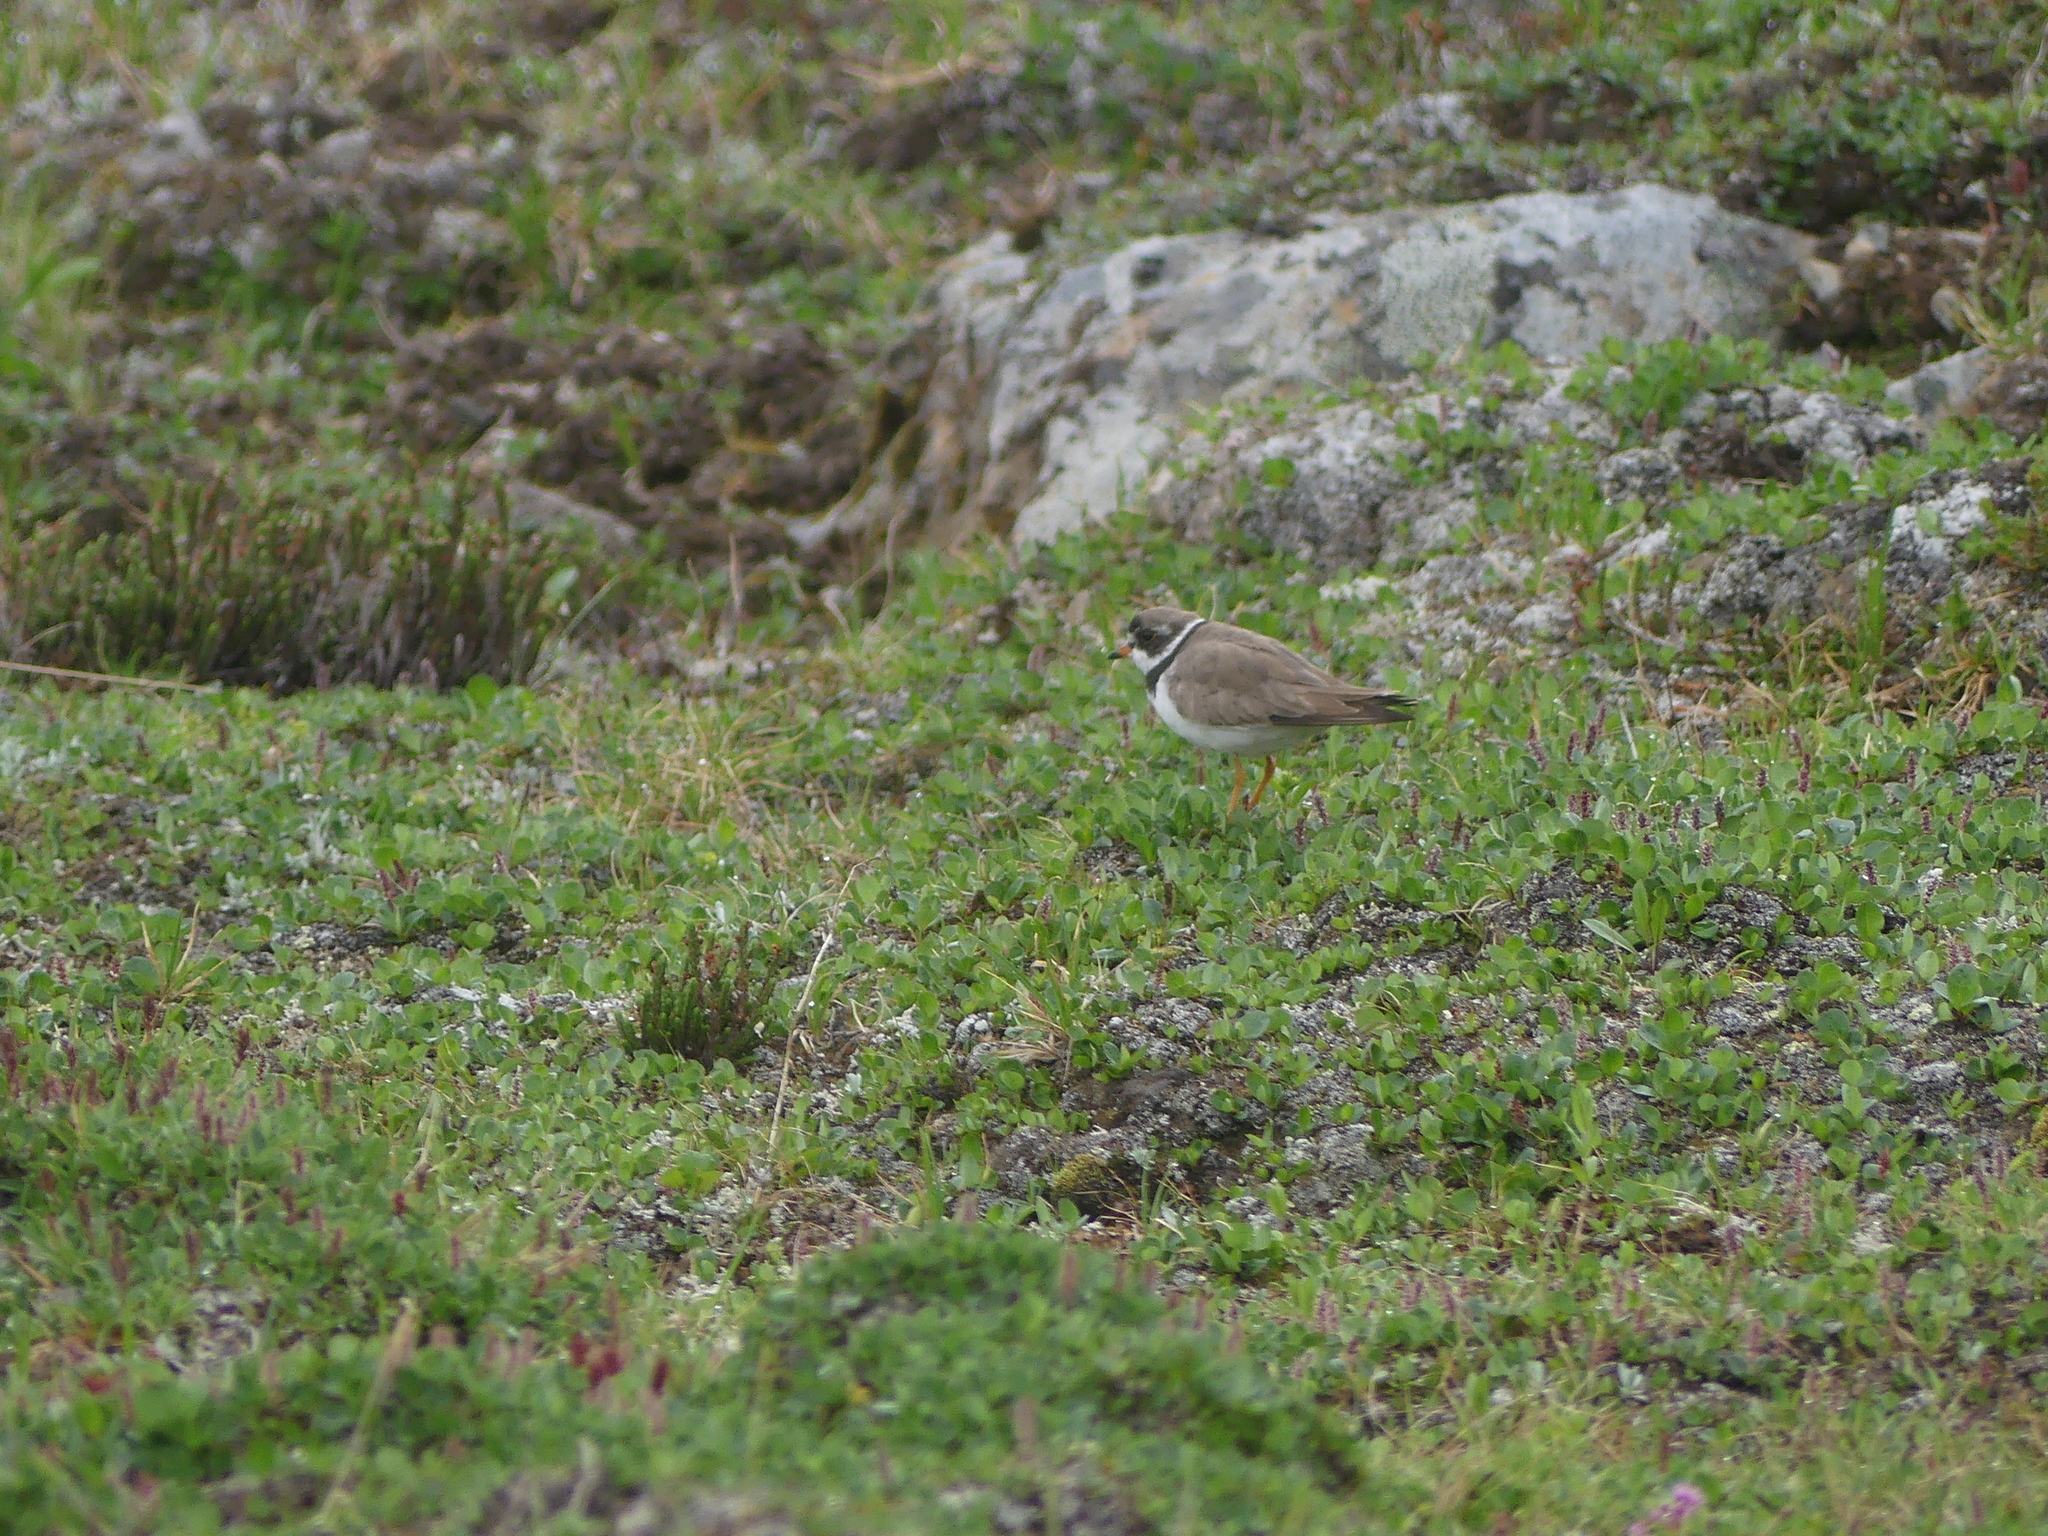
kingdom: Animalia
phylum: Chordata
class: Aves
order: Charadriiformes
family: Charadriidae
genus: Charadrius
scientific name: Charadrius semipalmatus
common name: Semipalmated plover
